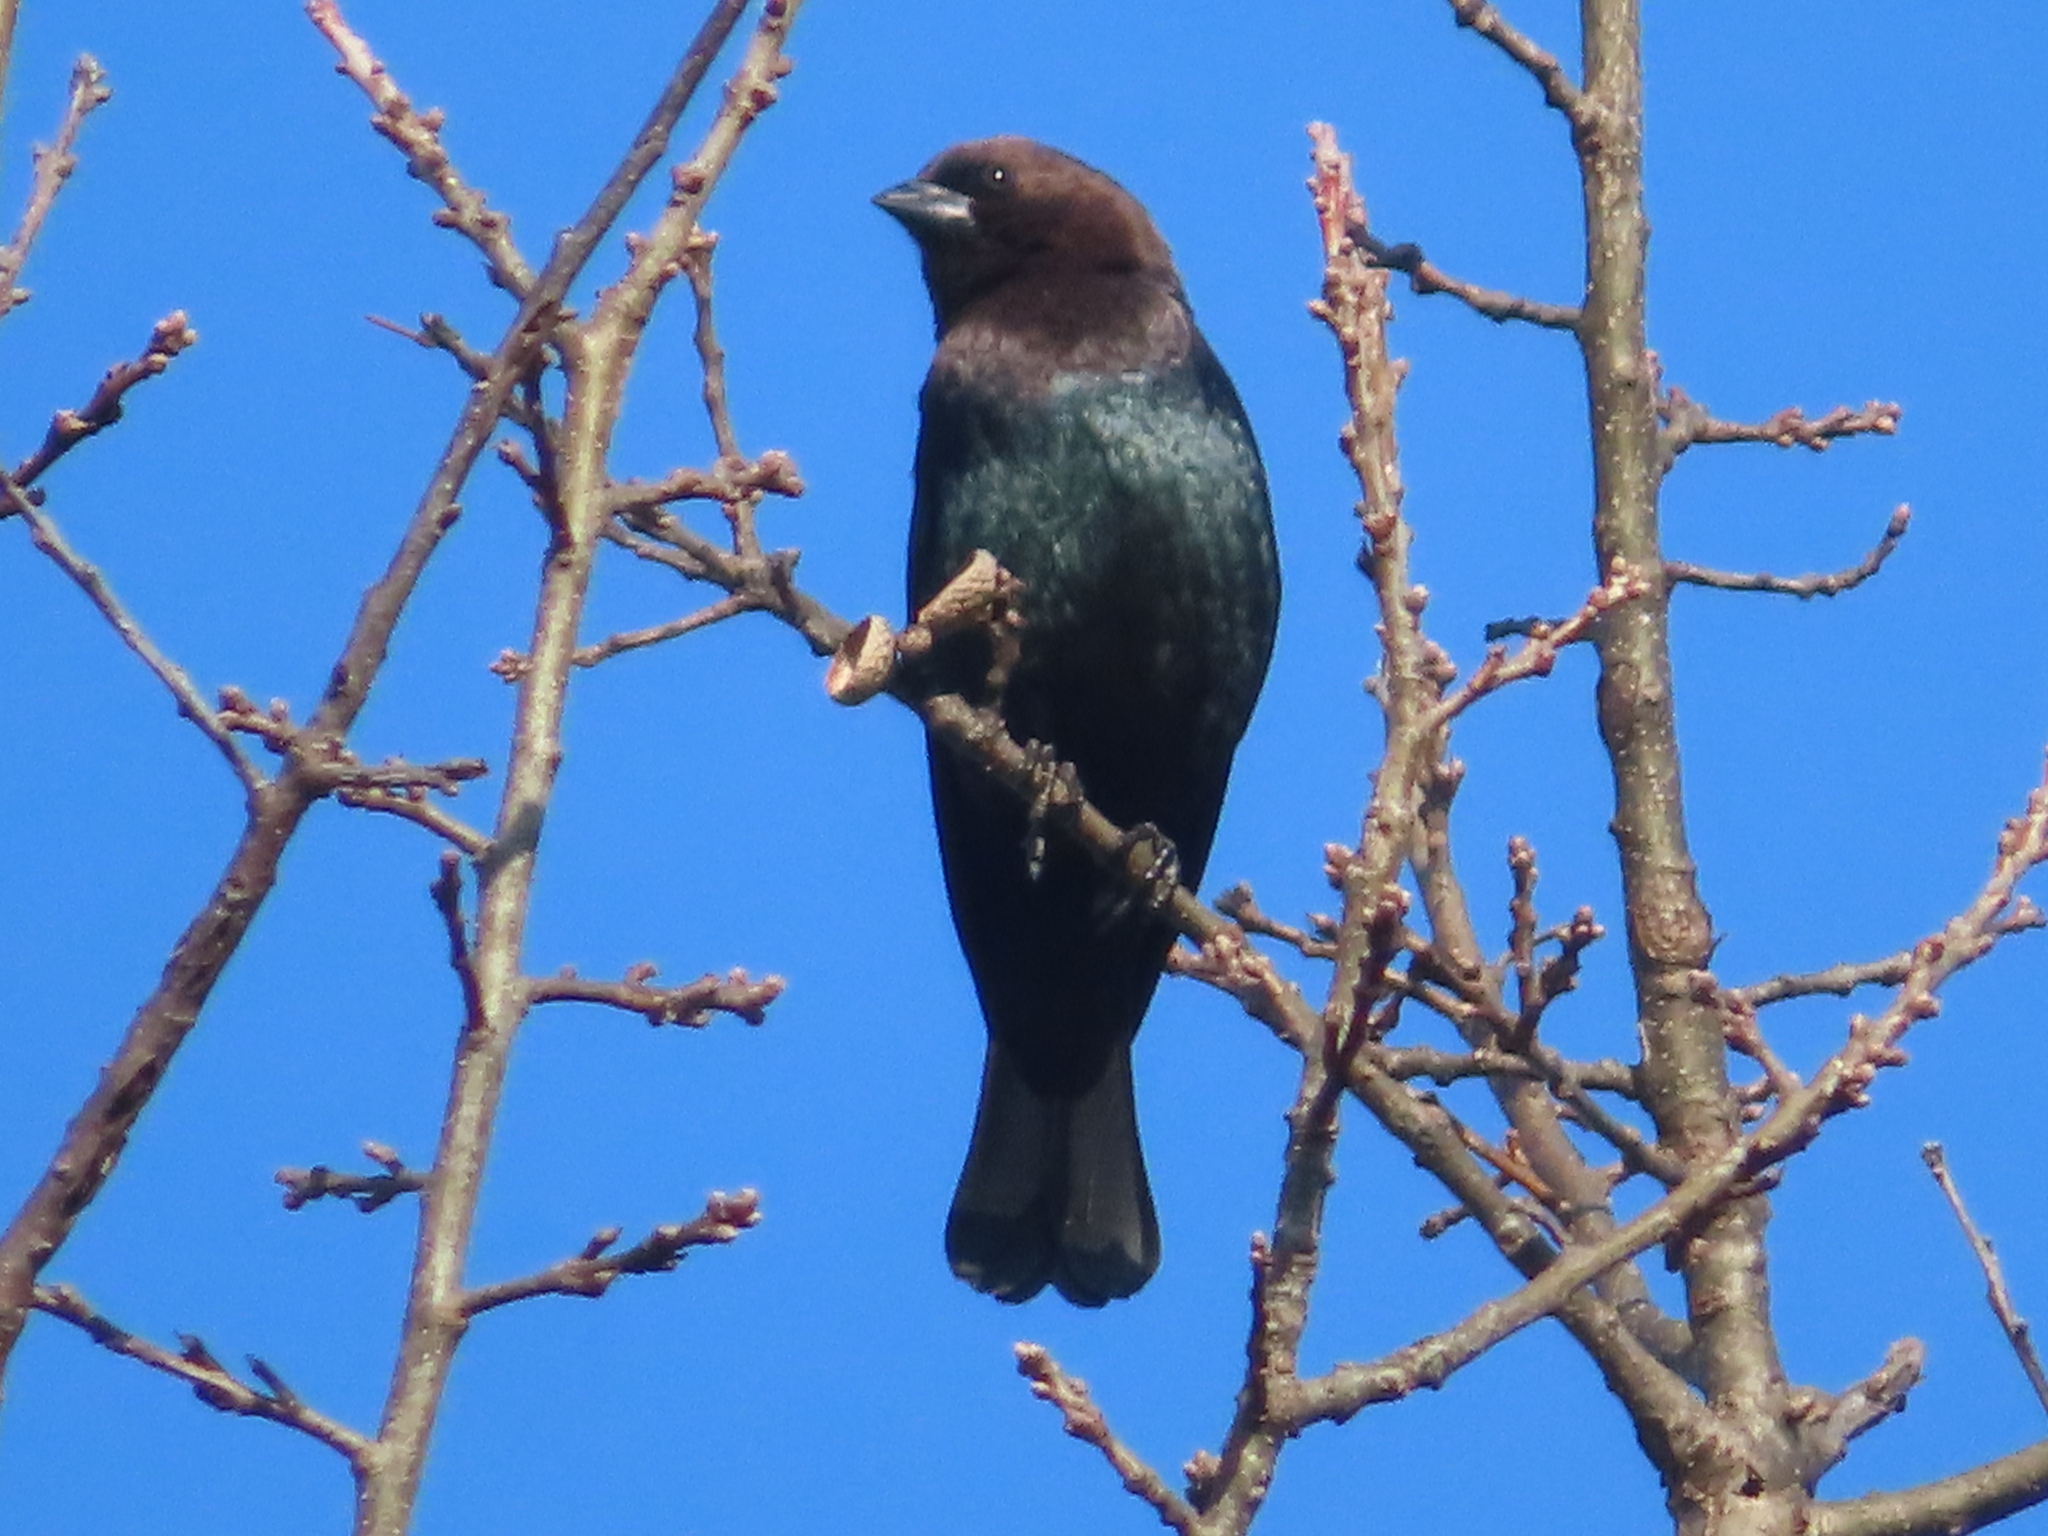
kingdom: Animalia
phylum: Chordata
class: Aves
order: Passeriformes
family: Icteridae
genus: Molothrus
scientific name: Molothrus ater
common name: Brown-headed cowbird
